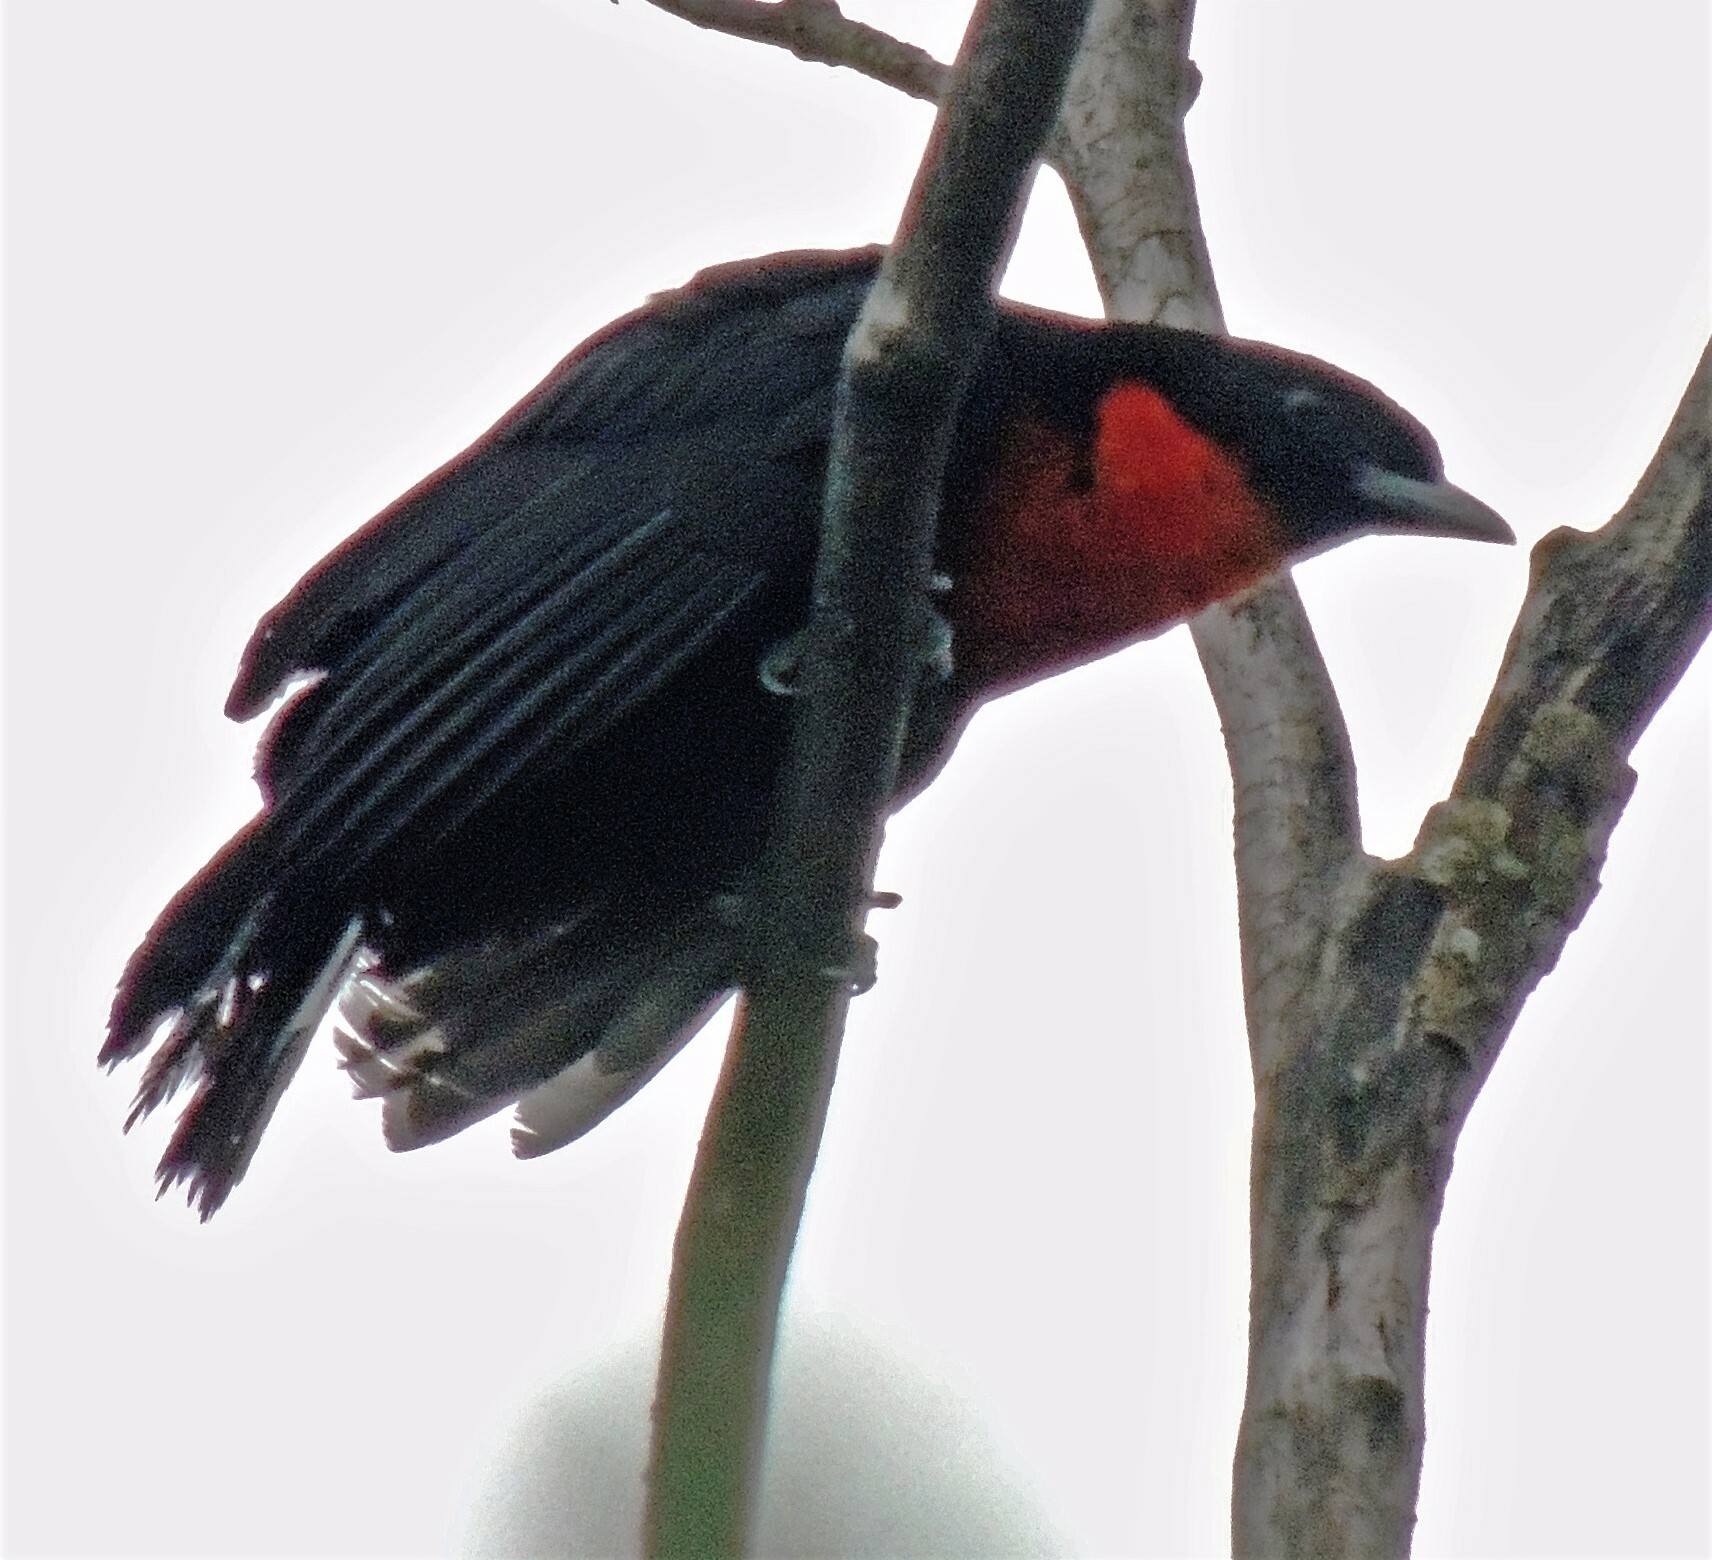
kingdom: Animalia
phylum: Chordata
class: Aves
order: Passeriformes
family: Cotingidae
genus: Pyroderus
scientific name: Pyroderus scutatus
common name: Red-ruffed fruitcrow
